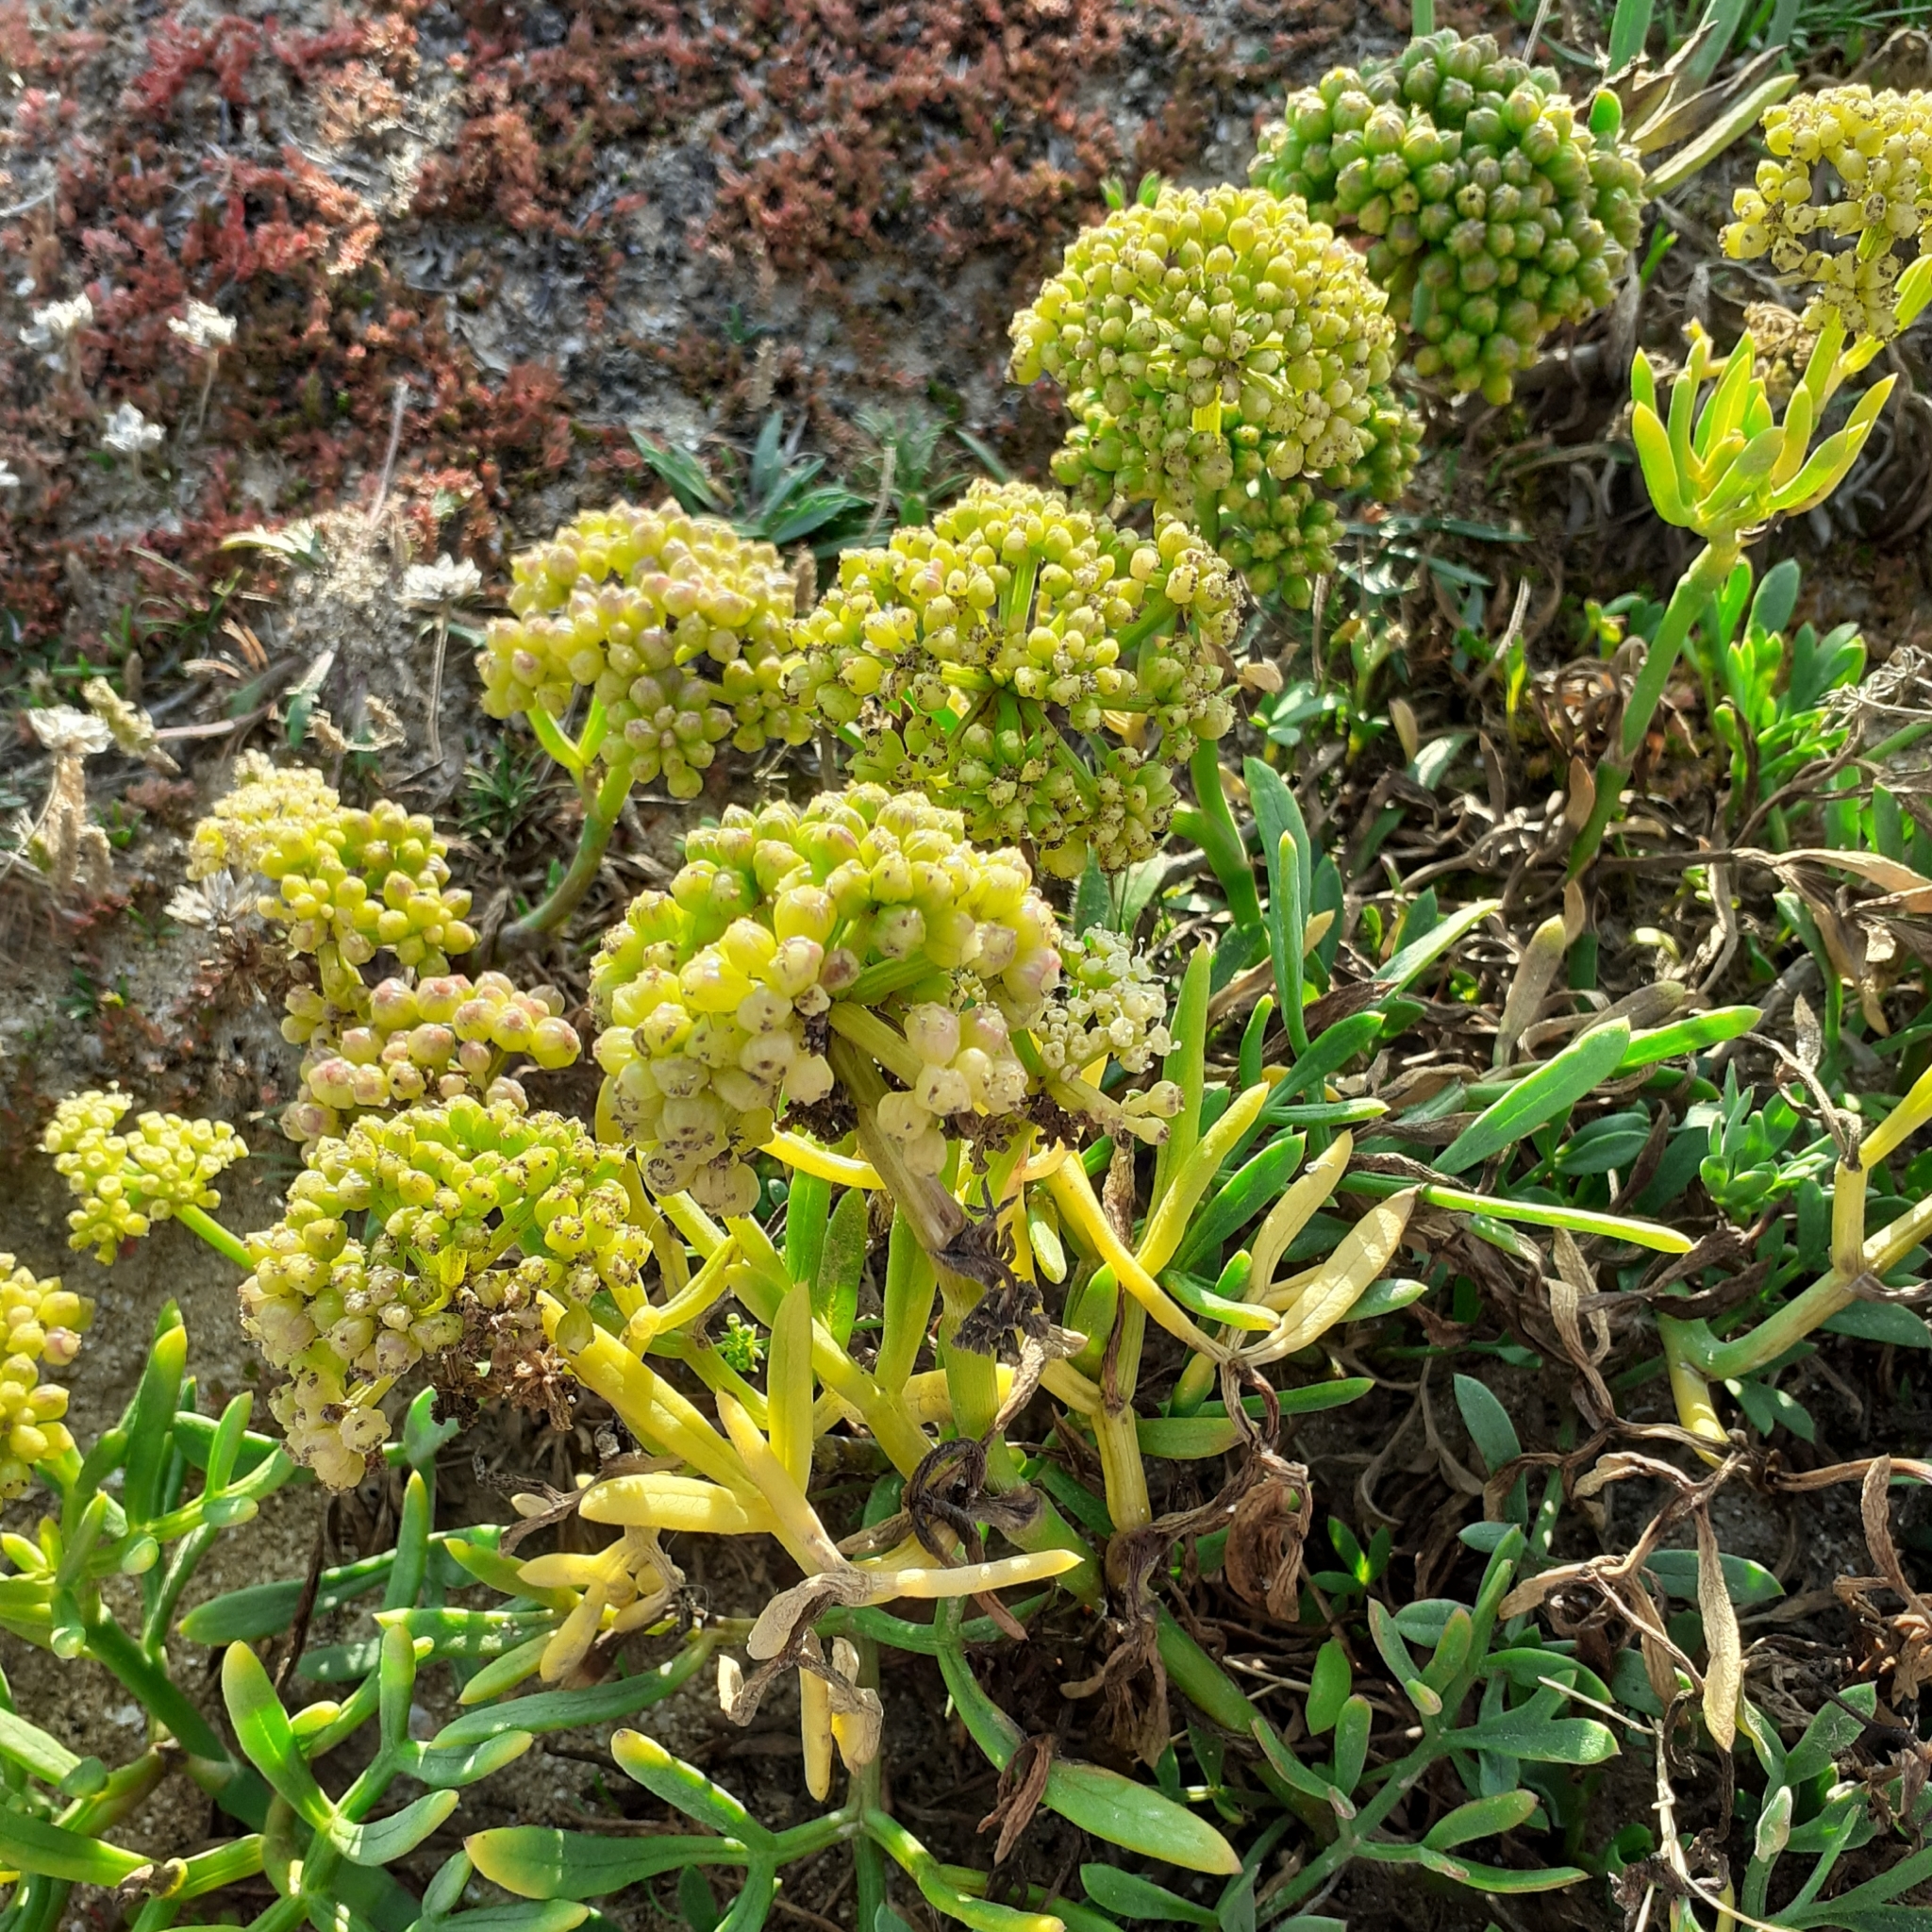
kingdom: Plantae
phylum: Tracheophyta
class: Magnoliopsida
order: Apiales
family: Apiaceae
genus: Crithmum
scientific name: Crithmum maritimum
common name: Rock samphire
